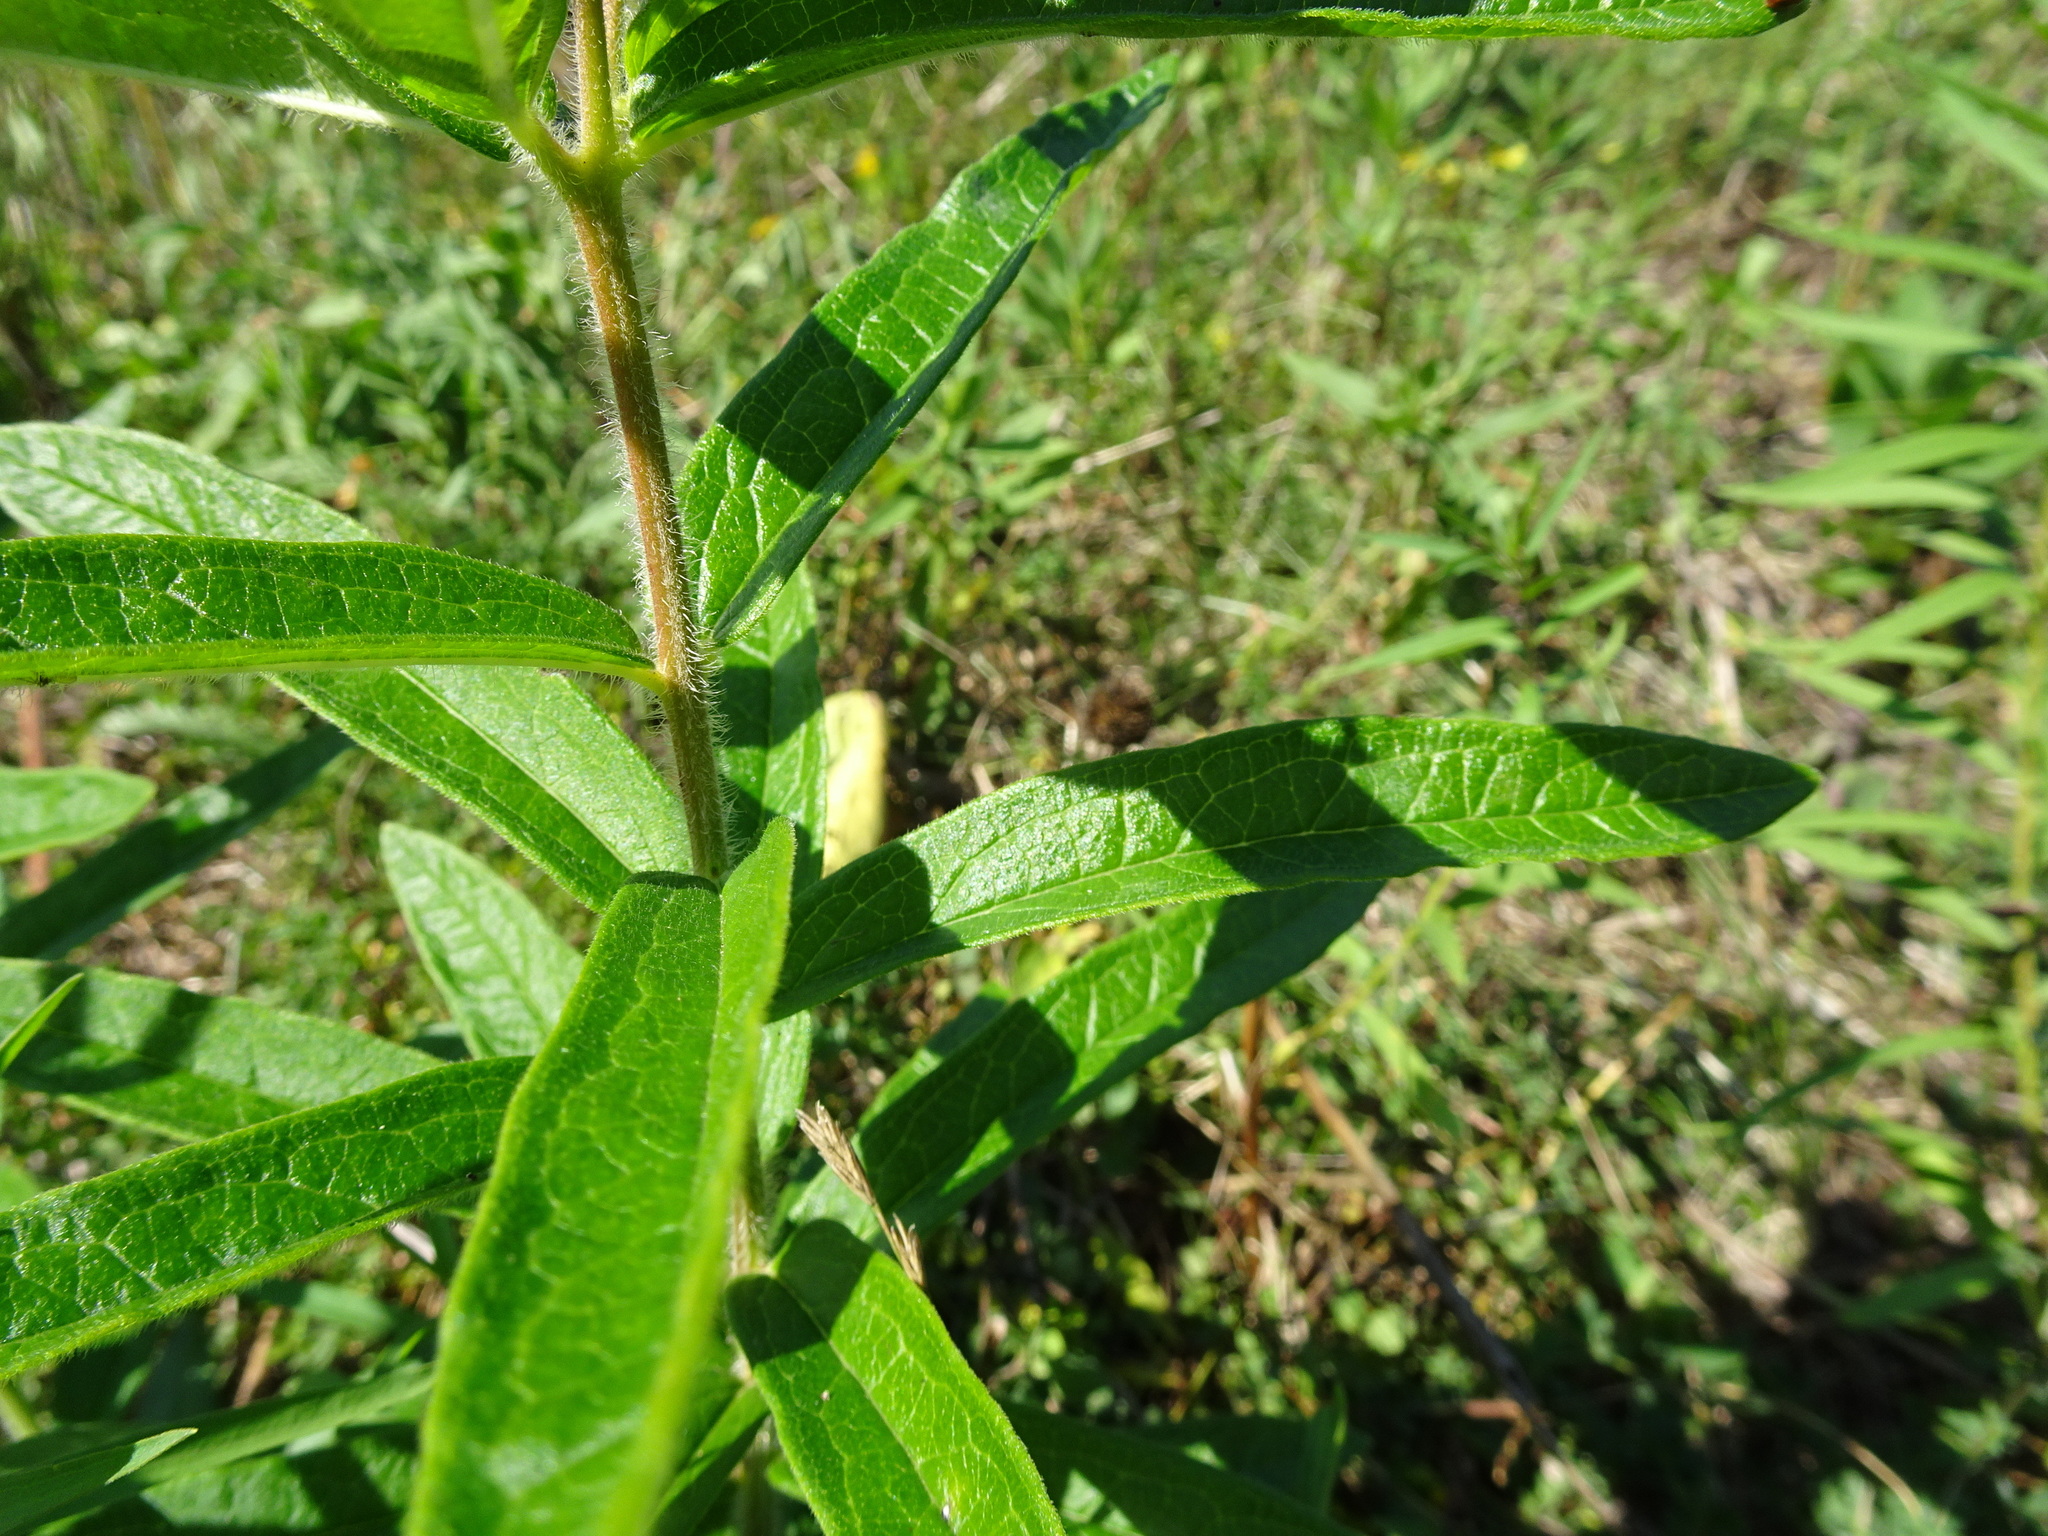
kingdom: Plantae
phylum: Tracheophyta
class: Magnoliopsida
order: Gentianales
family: Apocynaceae
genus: Asclepias
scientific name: Asclepias tuberosa
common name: Butterfly milkweed
